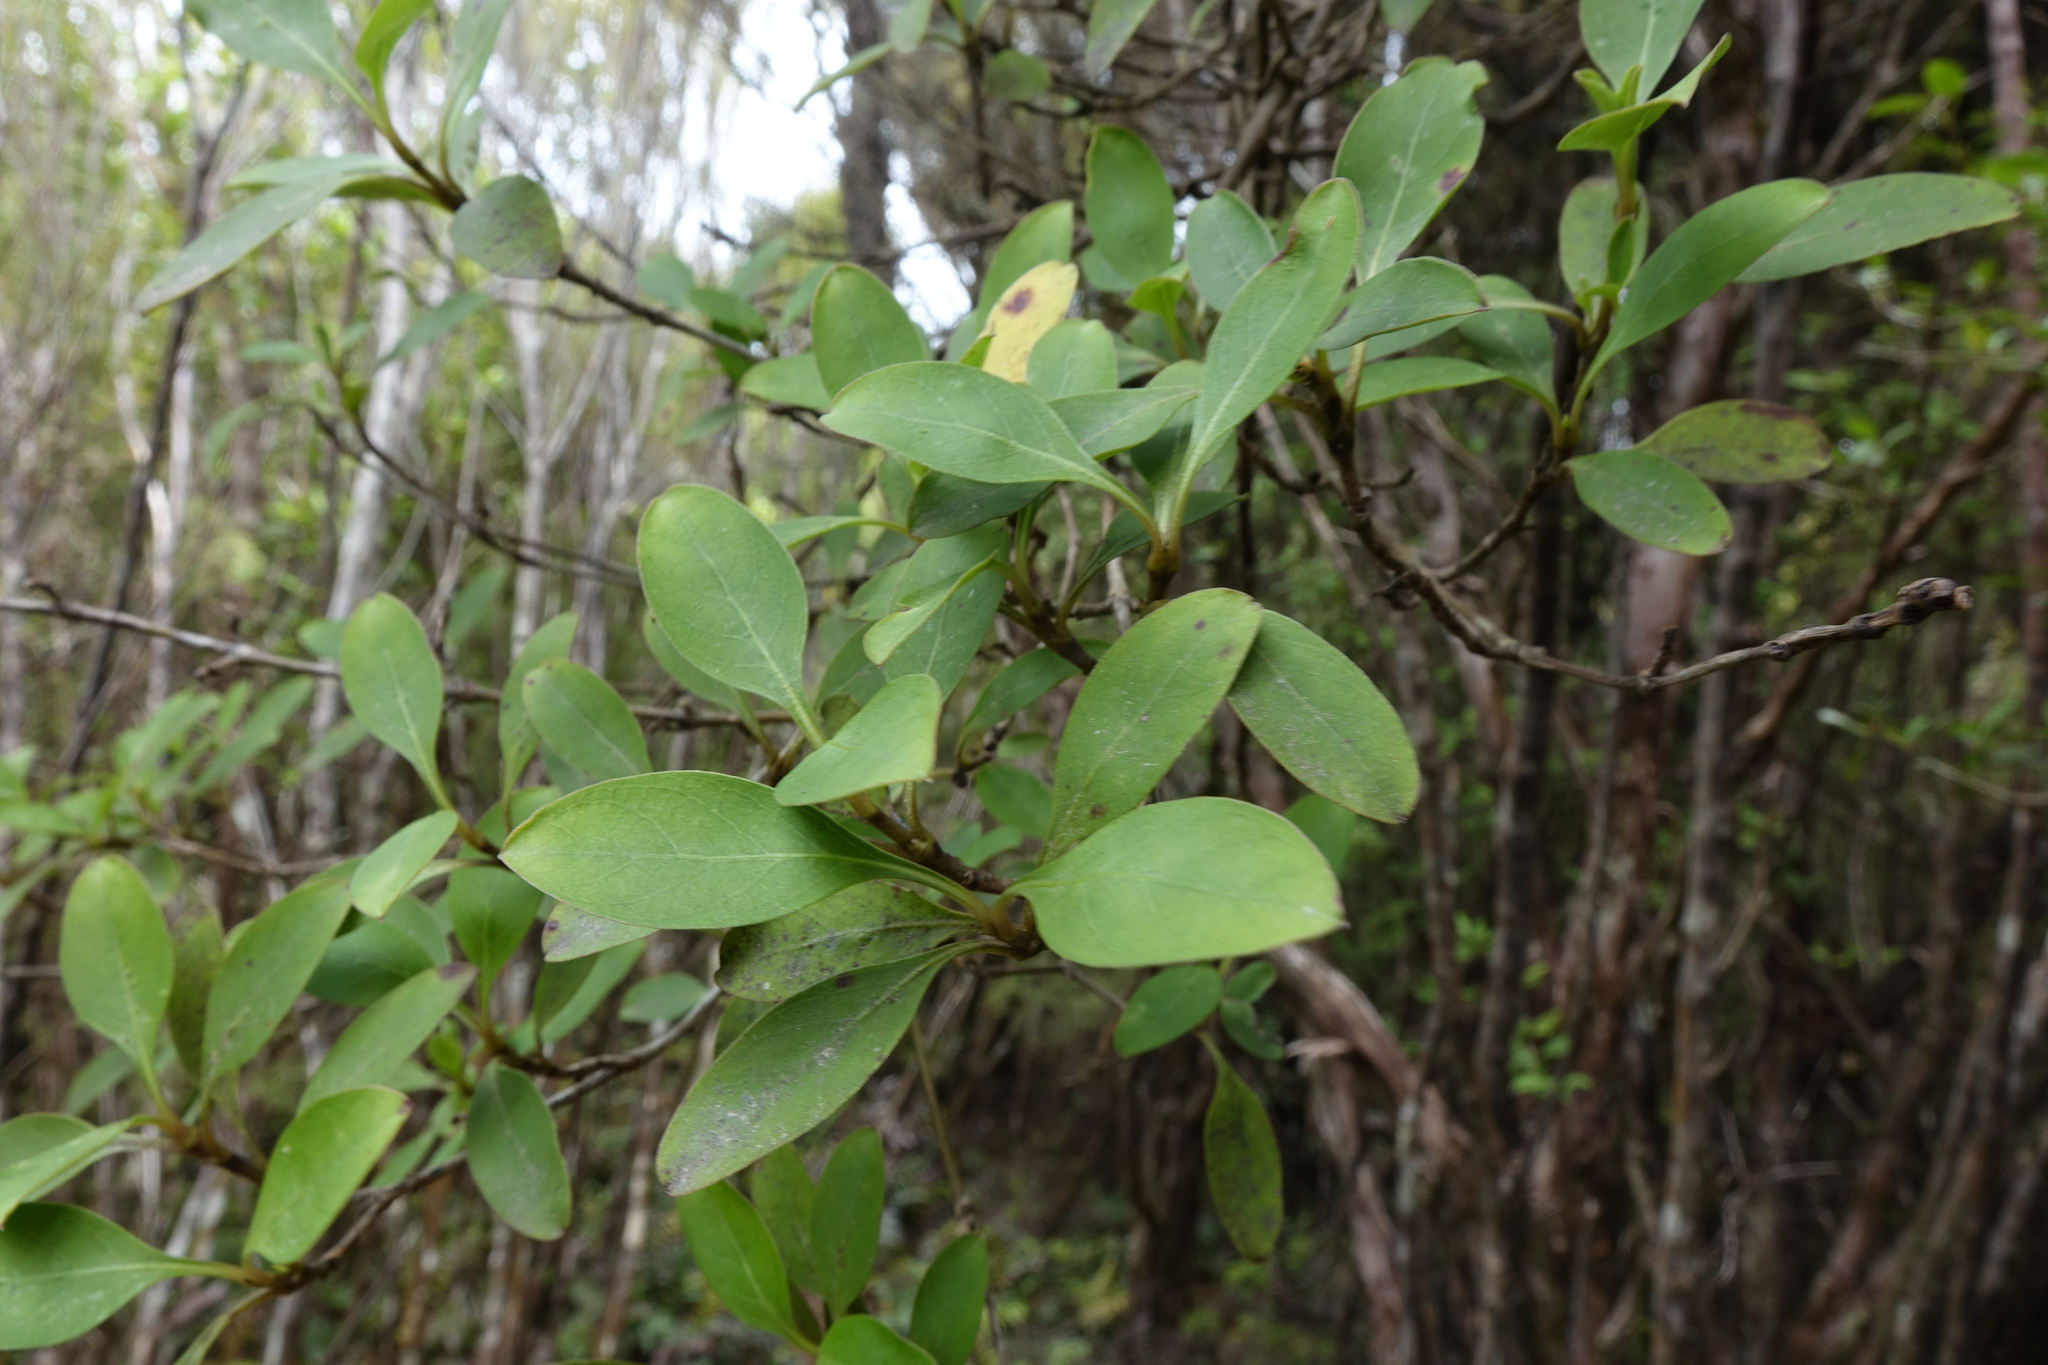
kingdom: Plantae
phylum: Tracheophyta
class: Magnoliopsida
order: Gentianales
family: Rubiaceae
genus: Coprosma
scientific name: Coprosma foetidissima
